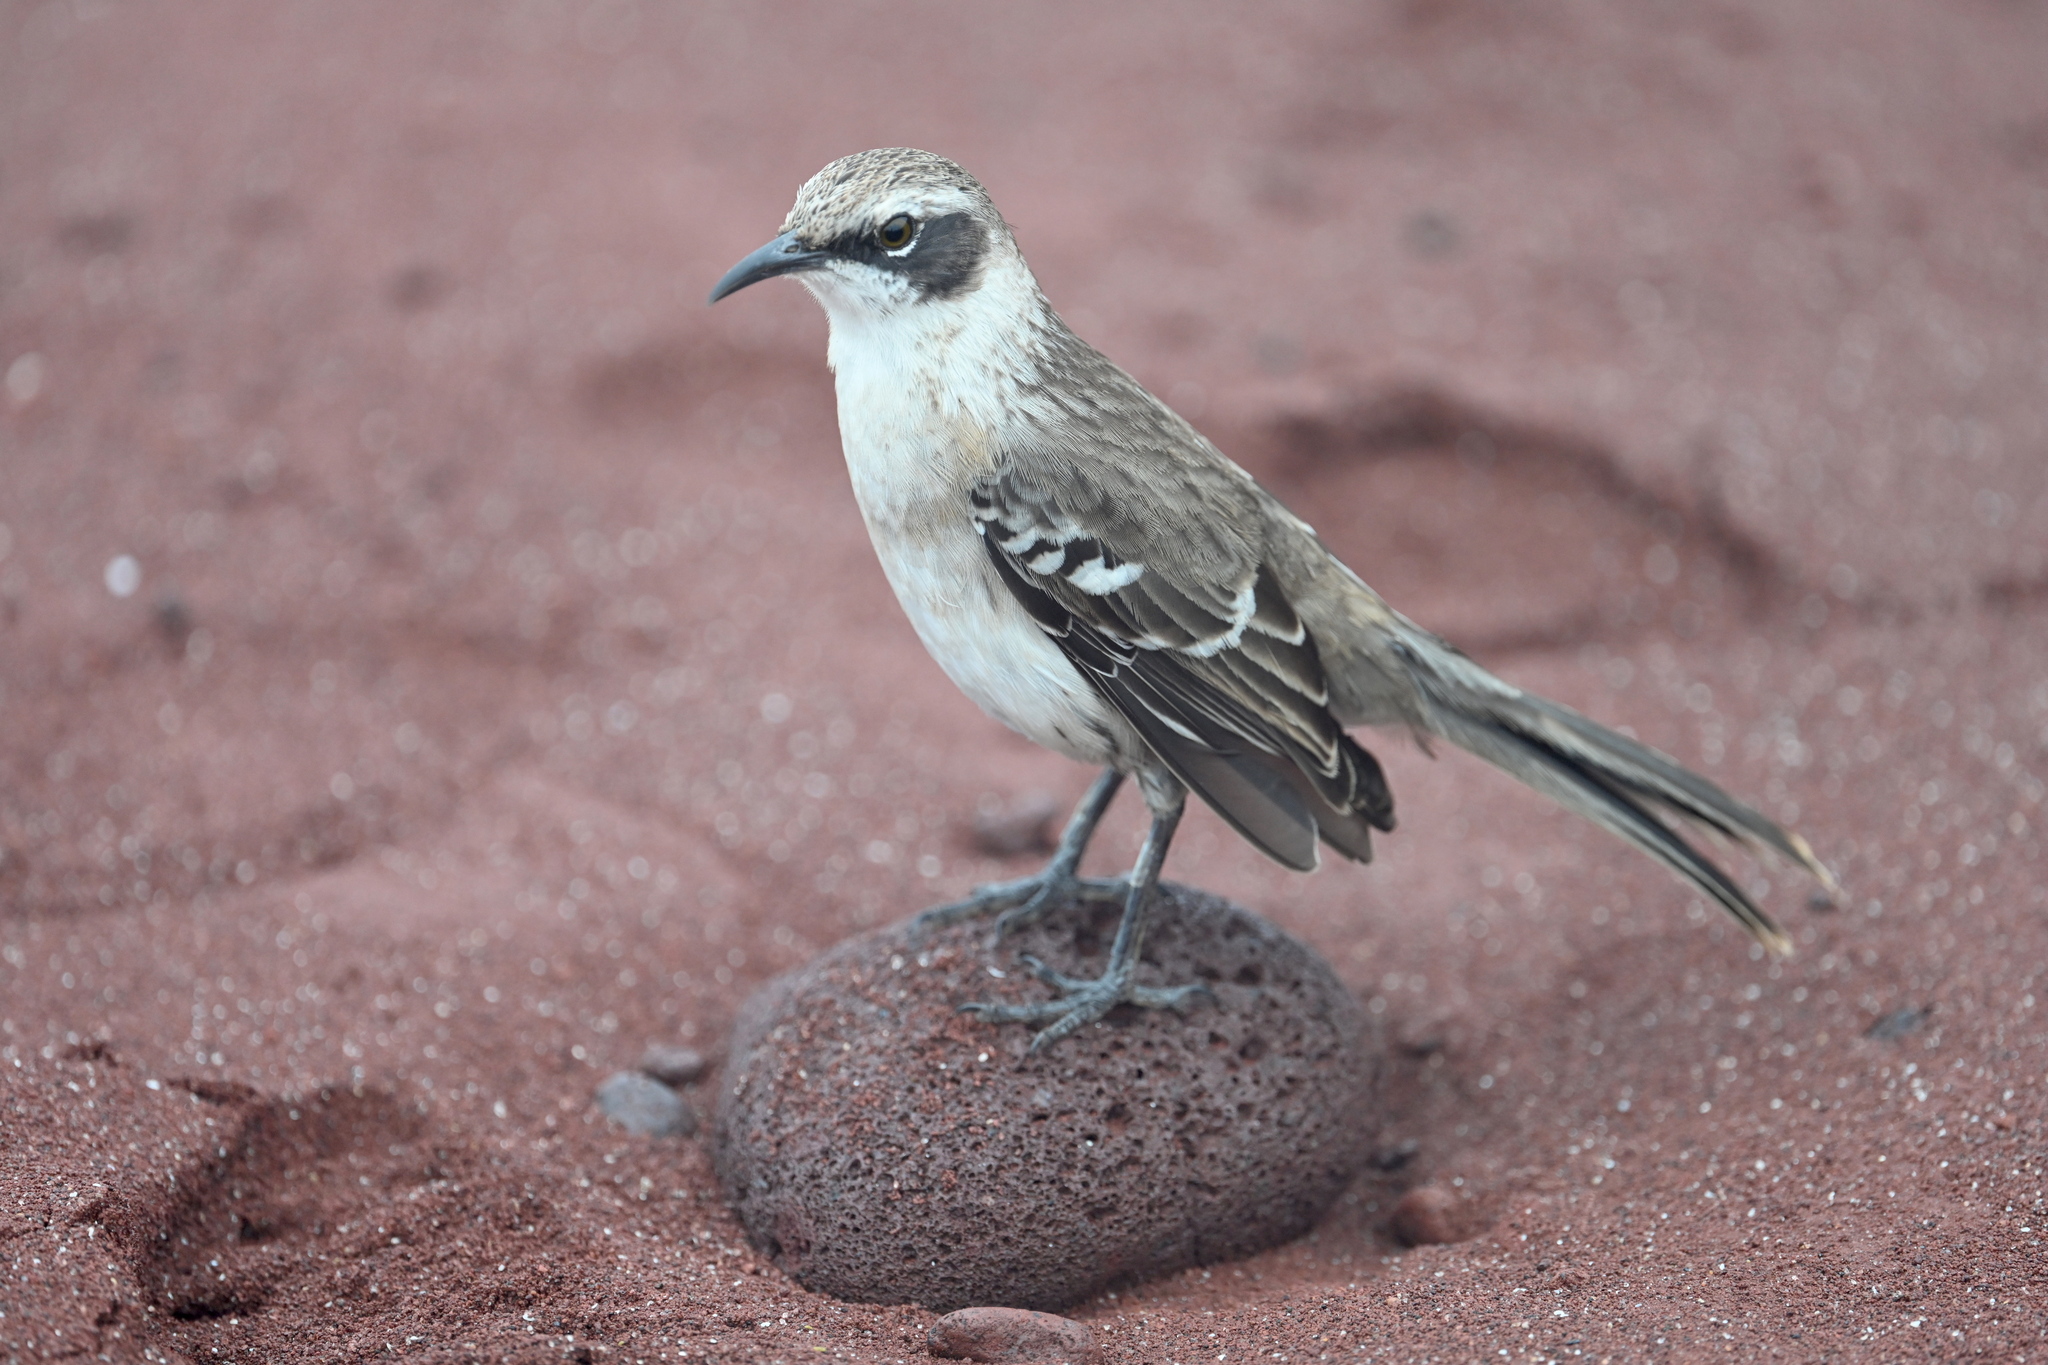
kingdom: Animalia
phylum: Chordata
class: Aves
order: Passeriformes
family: Mimidae
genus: Mimus
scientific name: Mimus parvulus
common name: Galapagos mockingbird
